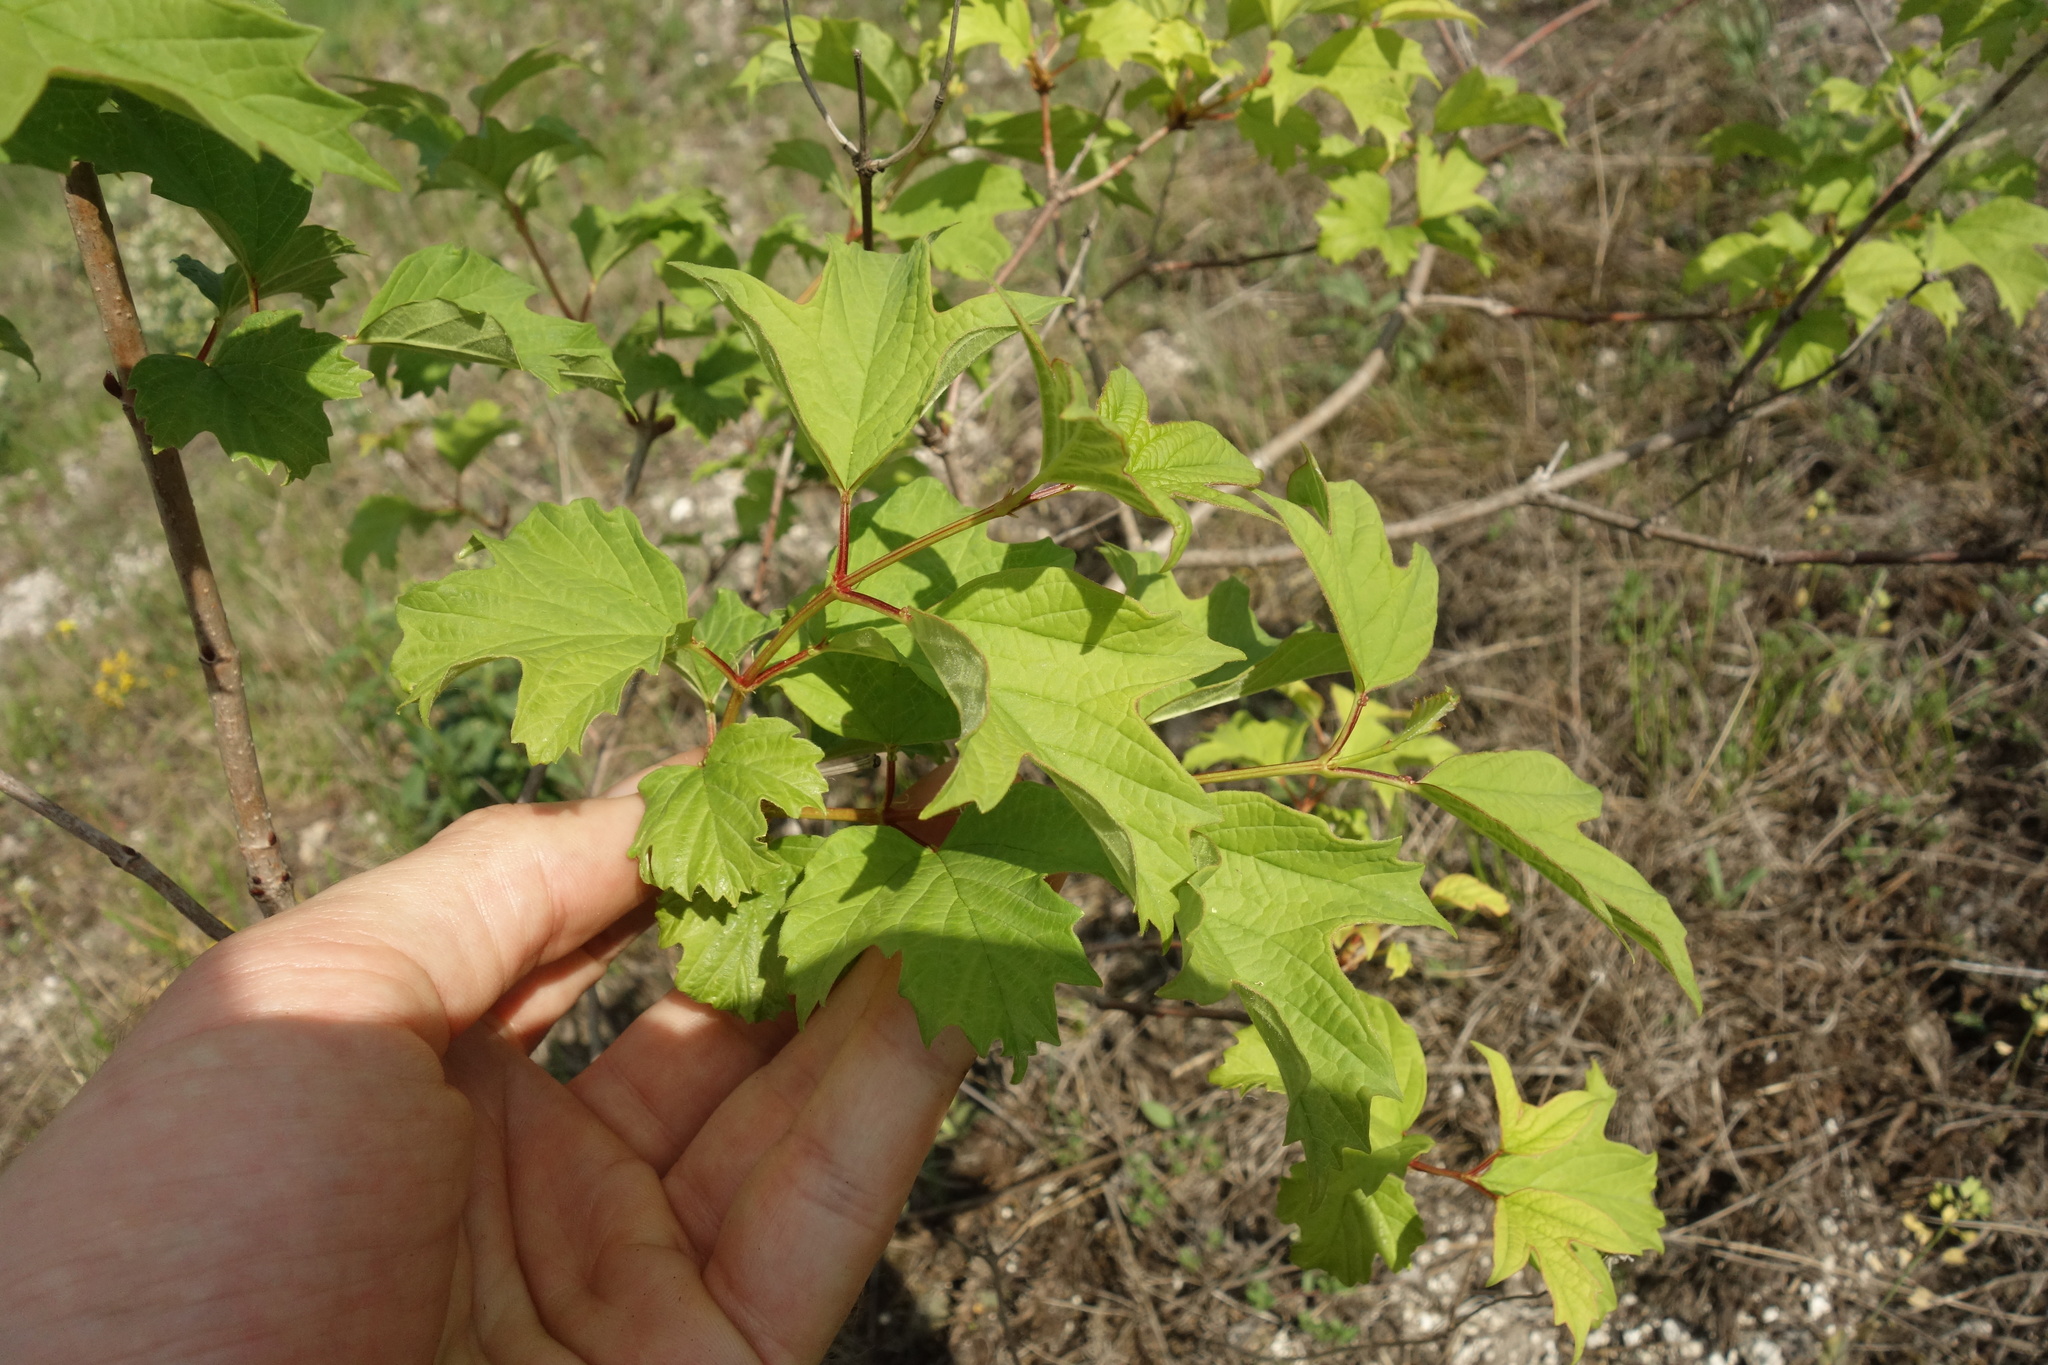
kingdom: Plantae
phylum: Tracheophyta
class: Magnoliopsida
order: Dipsacales
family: Viburnaceae
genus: Viburnum
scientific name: Viburnum opulus
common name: Guelder-rose
